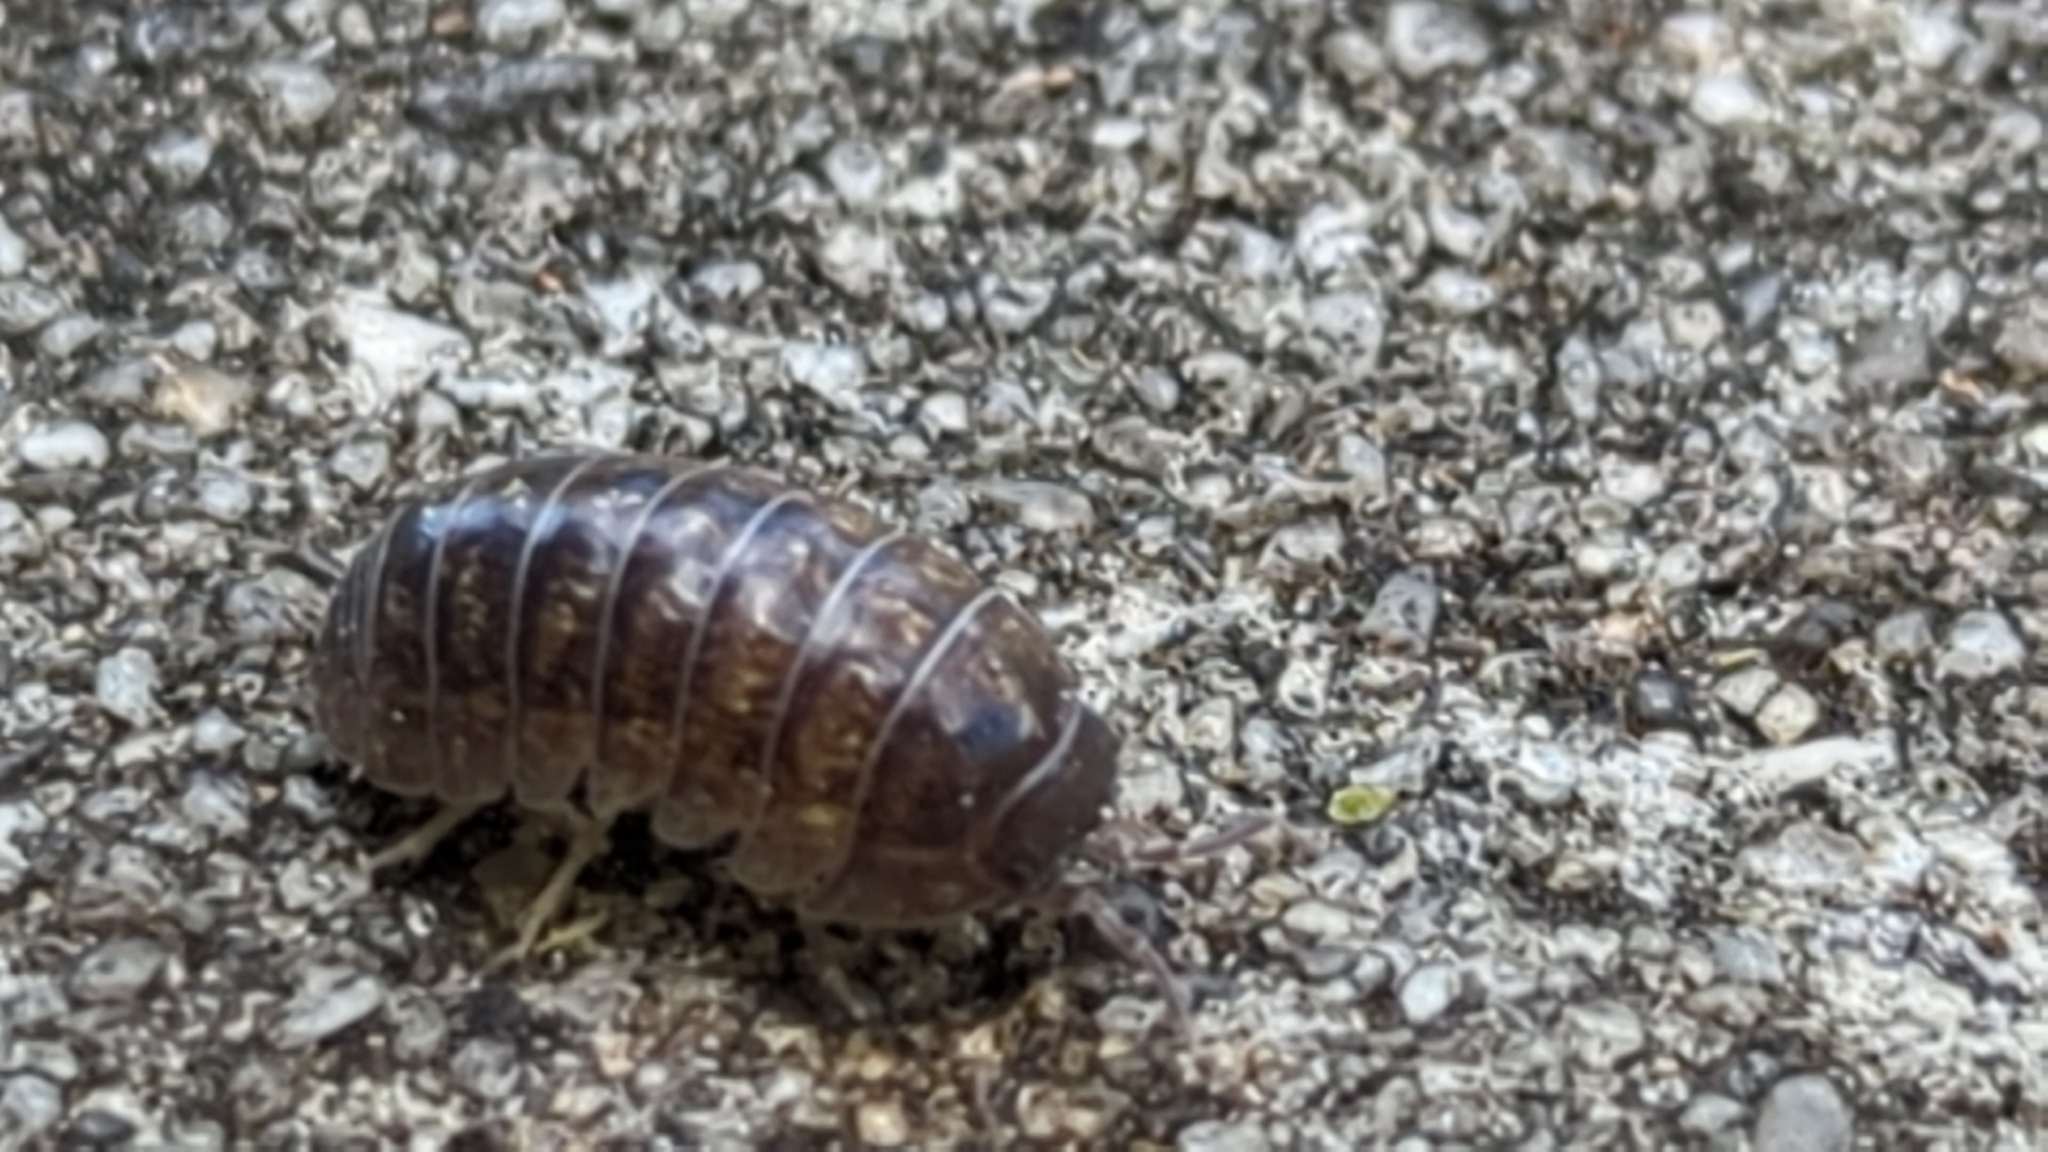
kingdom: Animalia
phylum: Arthropoda
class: Malacostraca
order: Isopoda
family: Armadillidiidae
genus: Armadillidium
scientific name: Armadillidium vulgare
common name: Common pill woodlouse
